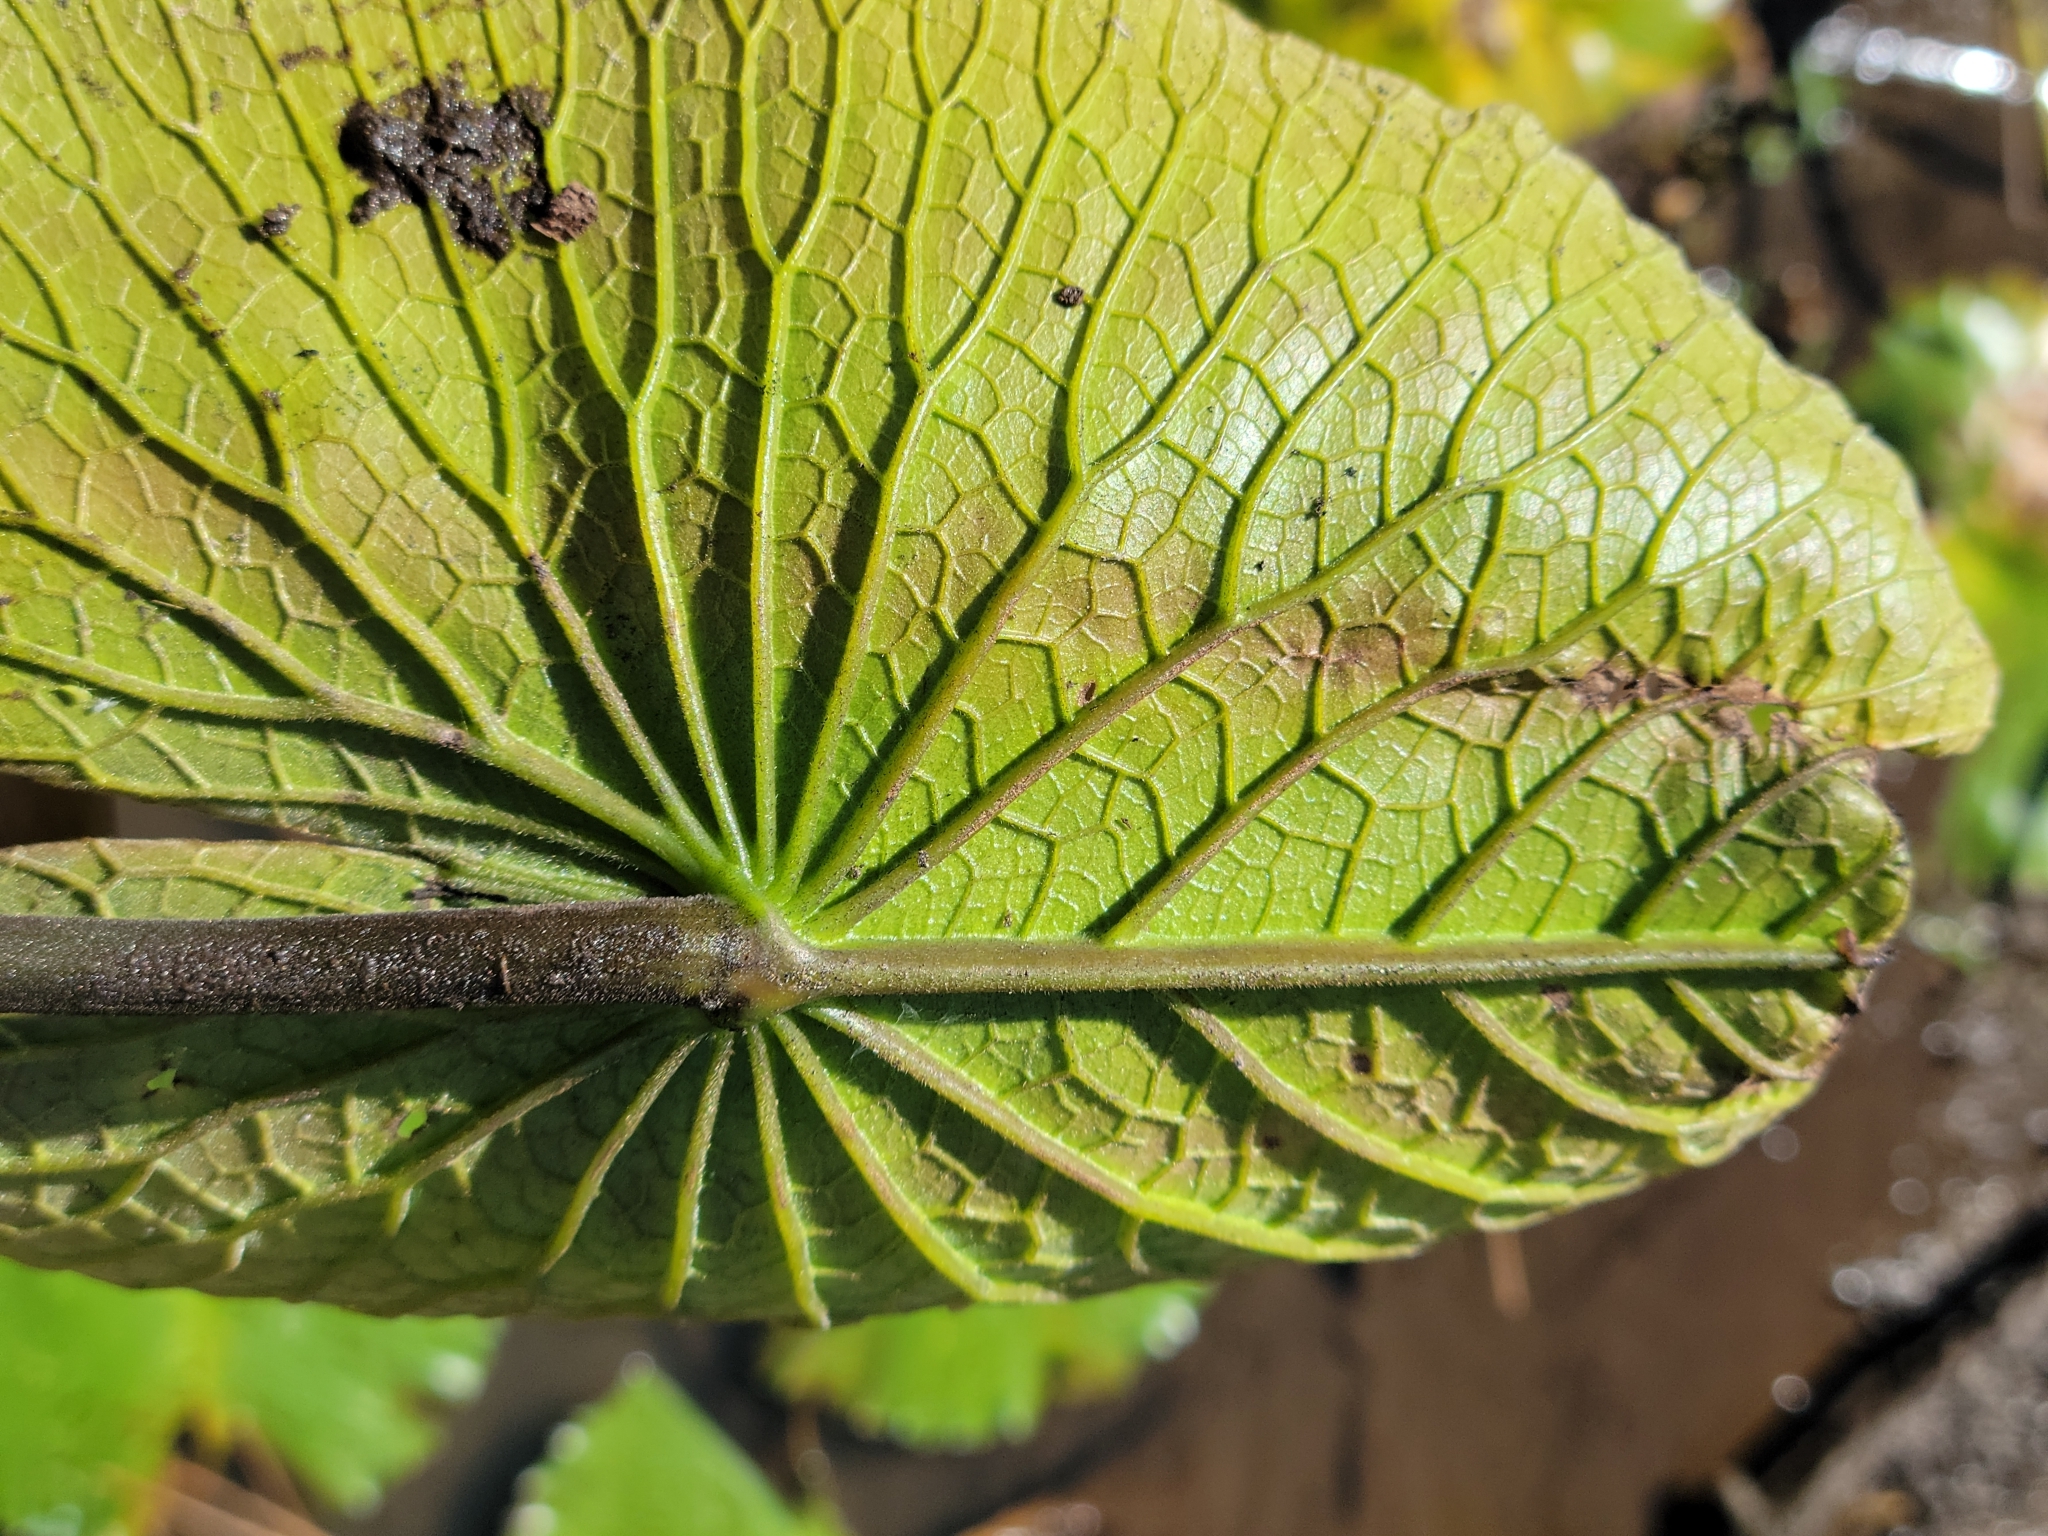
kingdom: Plantae
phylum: Tracheophyta
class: Magnoliopsida
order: Nymphaeales
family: Nymphaeaceae
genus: Nymphaea
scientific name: Nymphaea lotus
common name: White egyptian lotus
